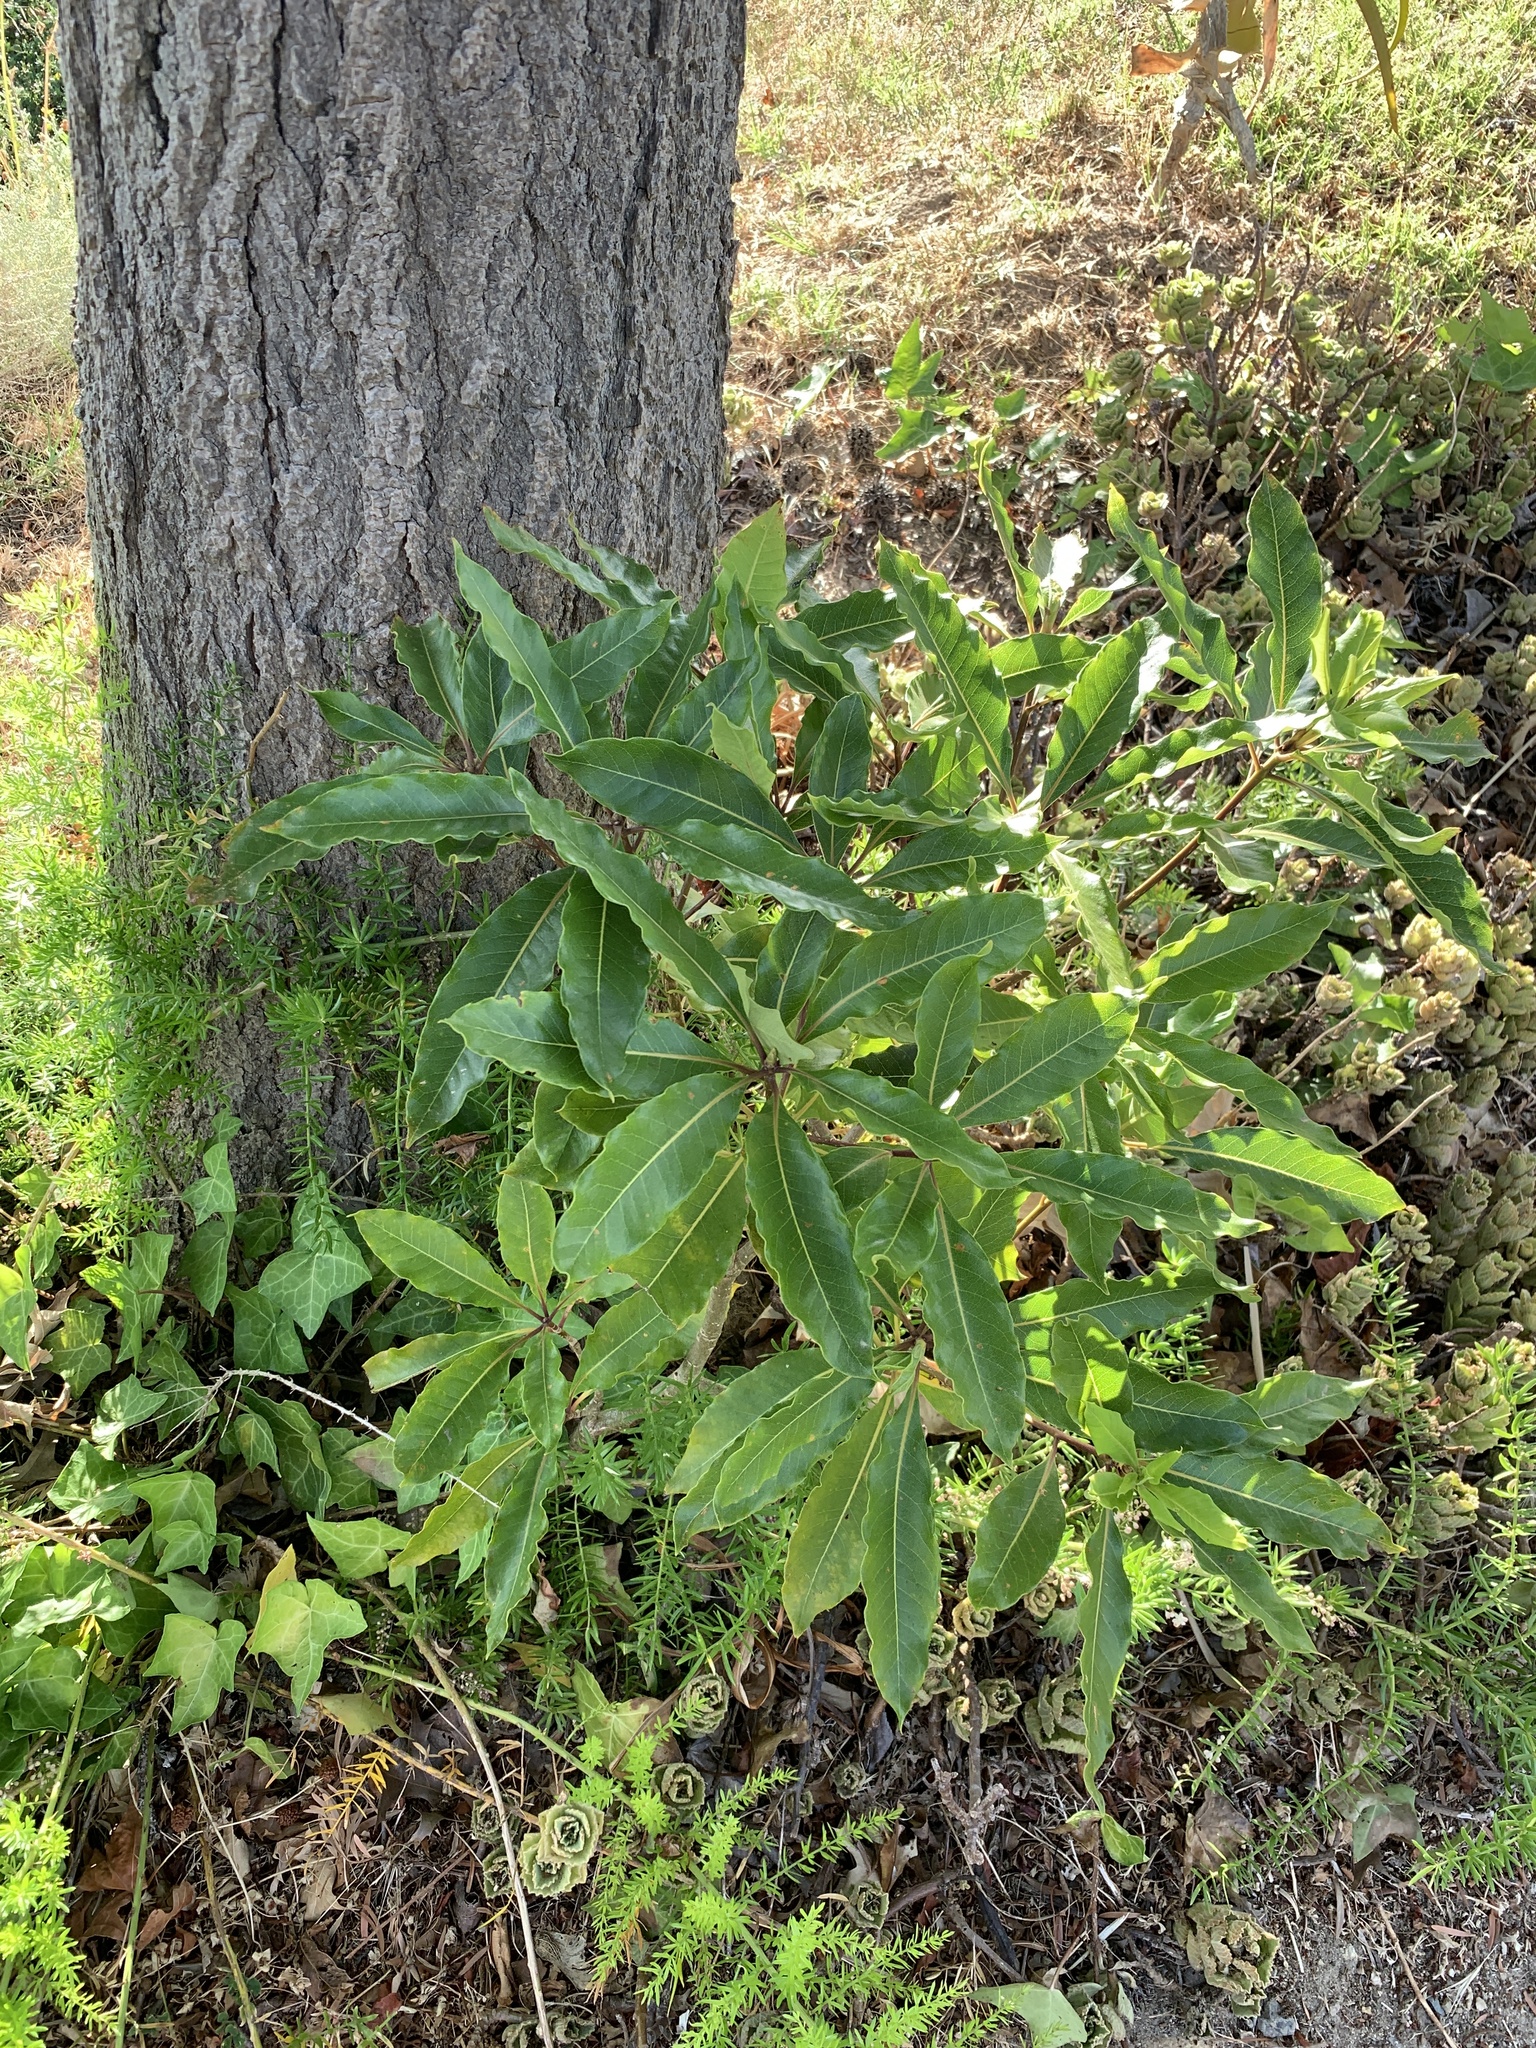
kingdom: Plantae
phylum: Tracheophyta
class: Magnoliopsida
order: Apiales
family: Pittosporaceae
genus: Pittosporum
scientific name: Pittosporum undulatum
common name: Australian cheesewood
